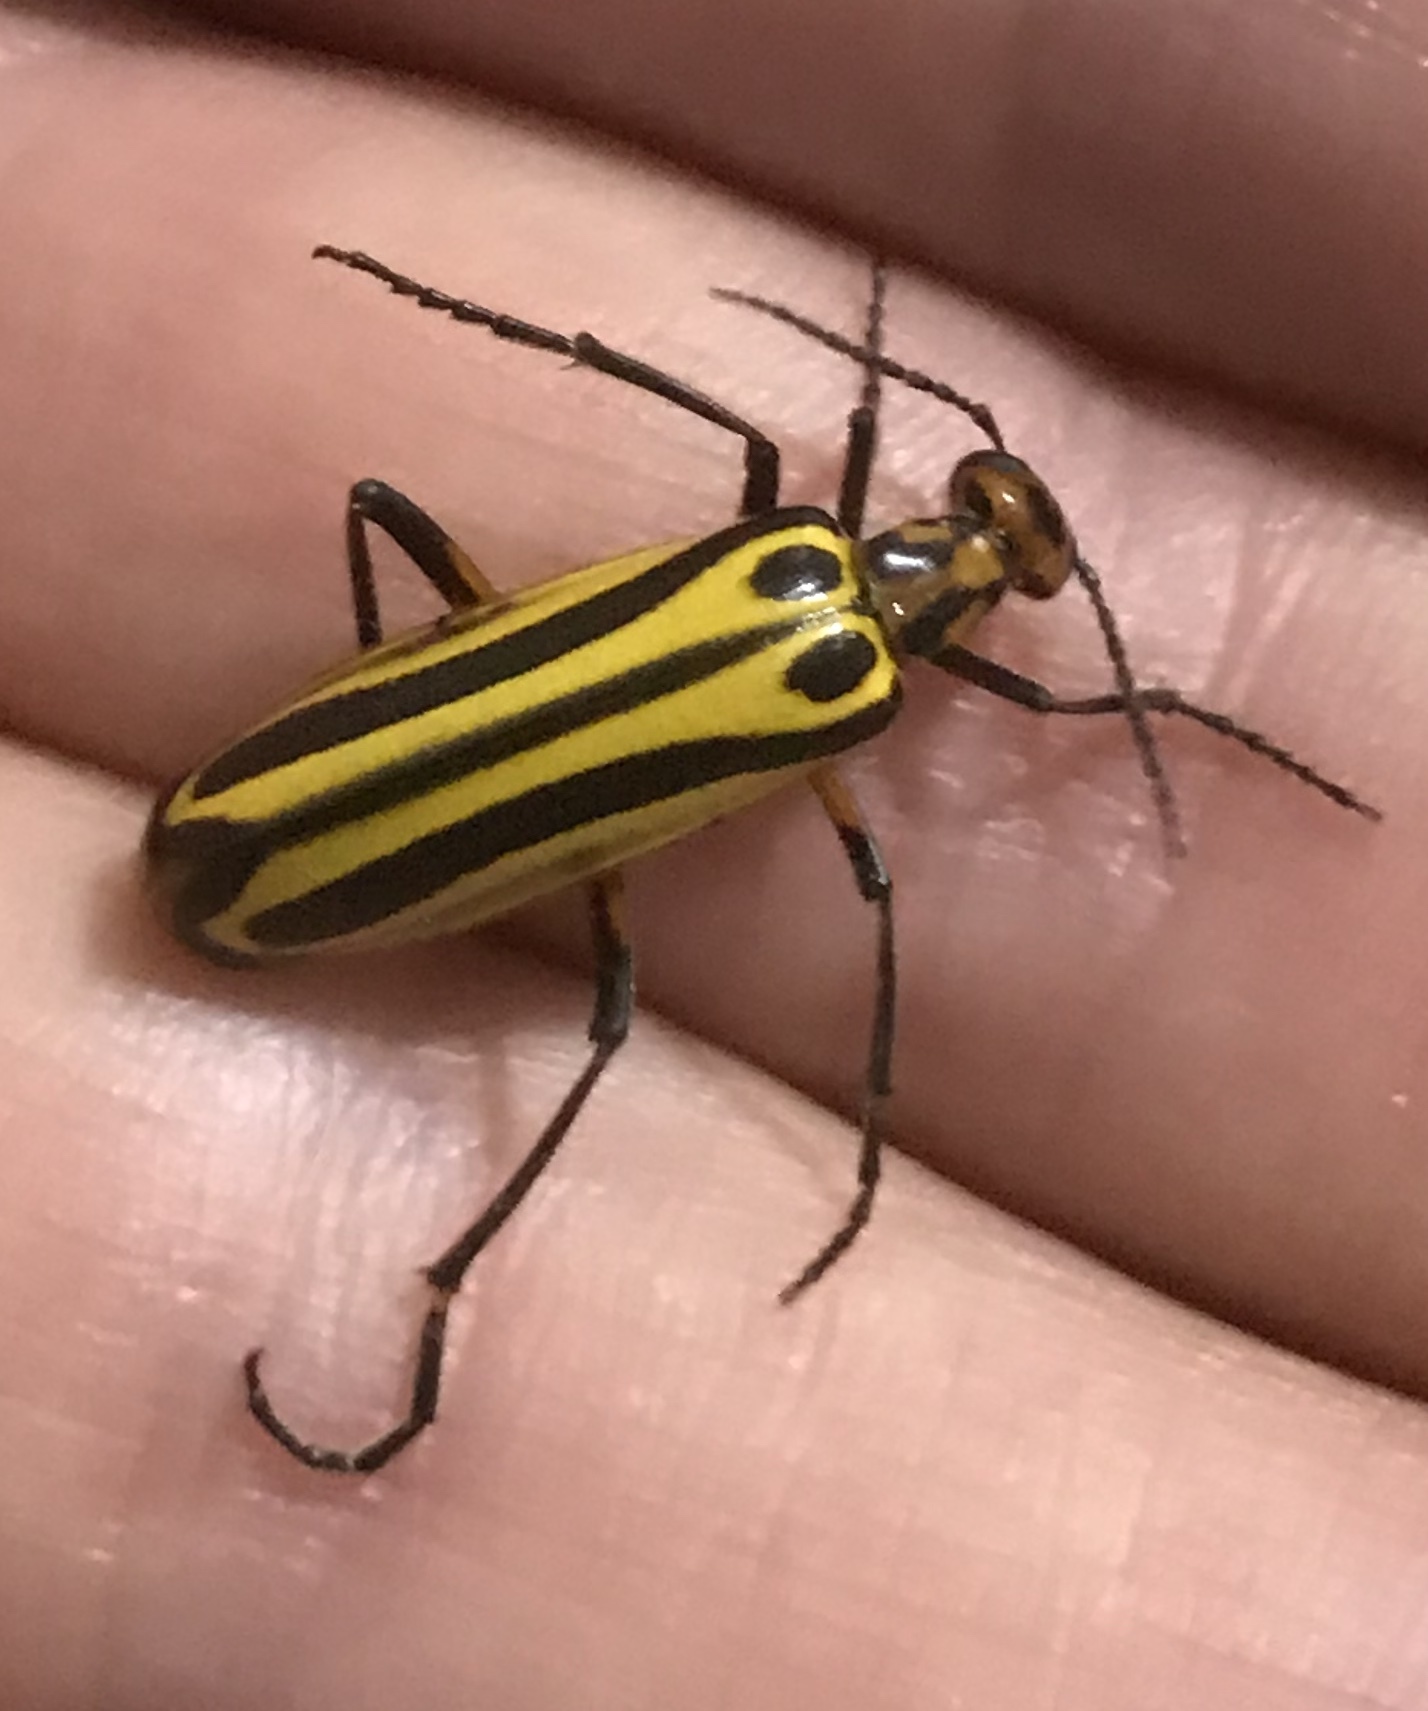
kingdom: Animalia
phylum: Arthropoda
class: Insecta
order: Coleoptera
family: Meloidae
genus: Pyrota
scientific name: Pyrota
